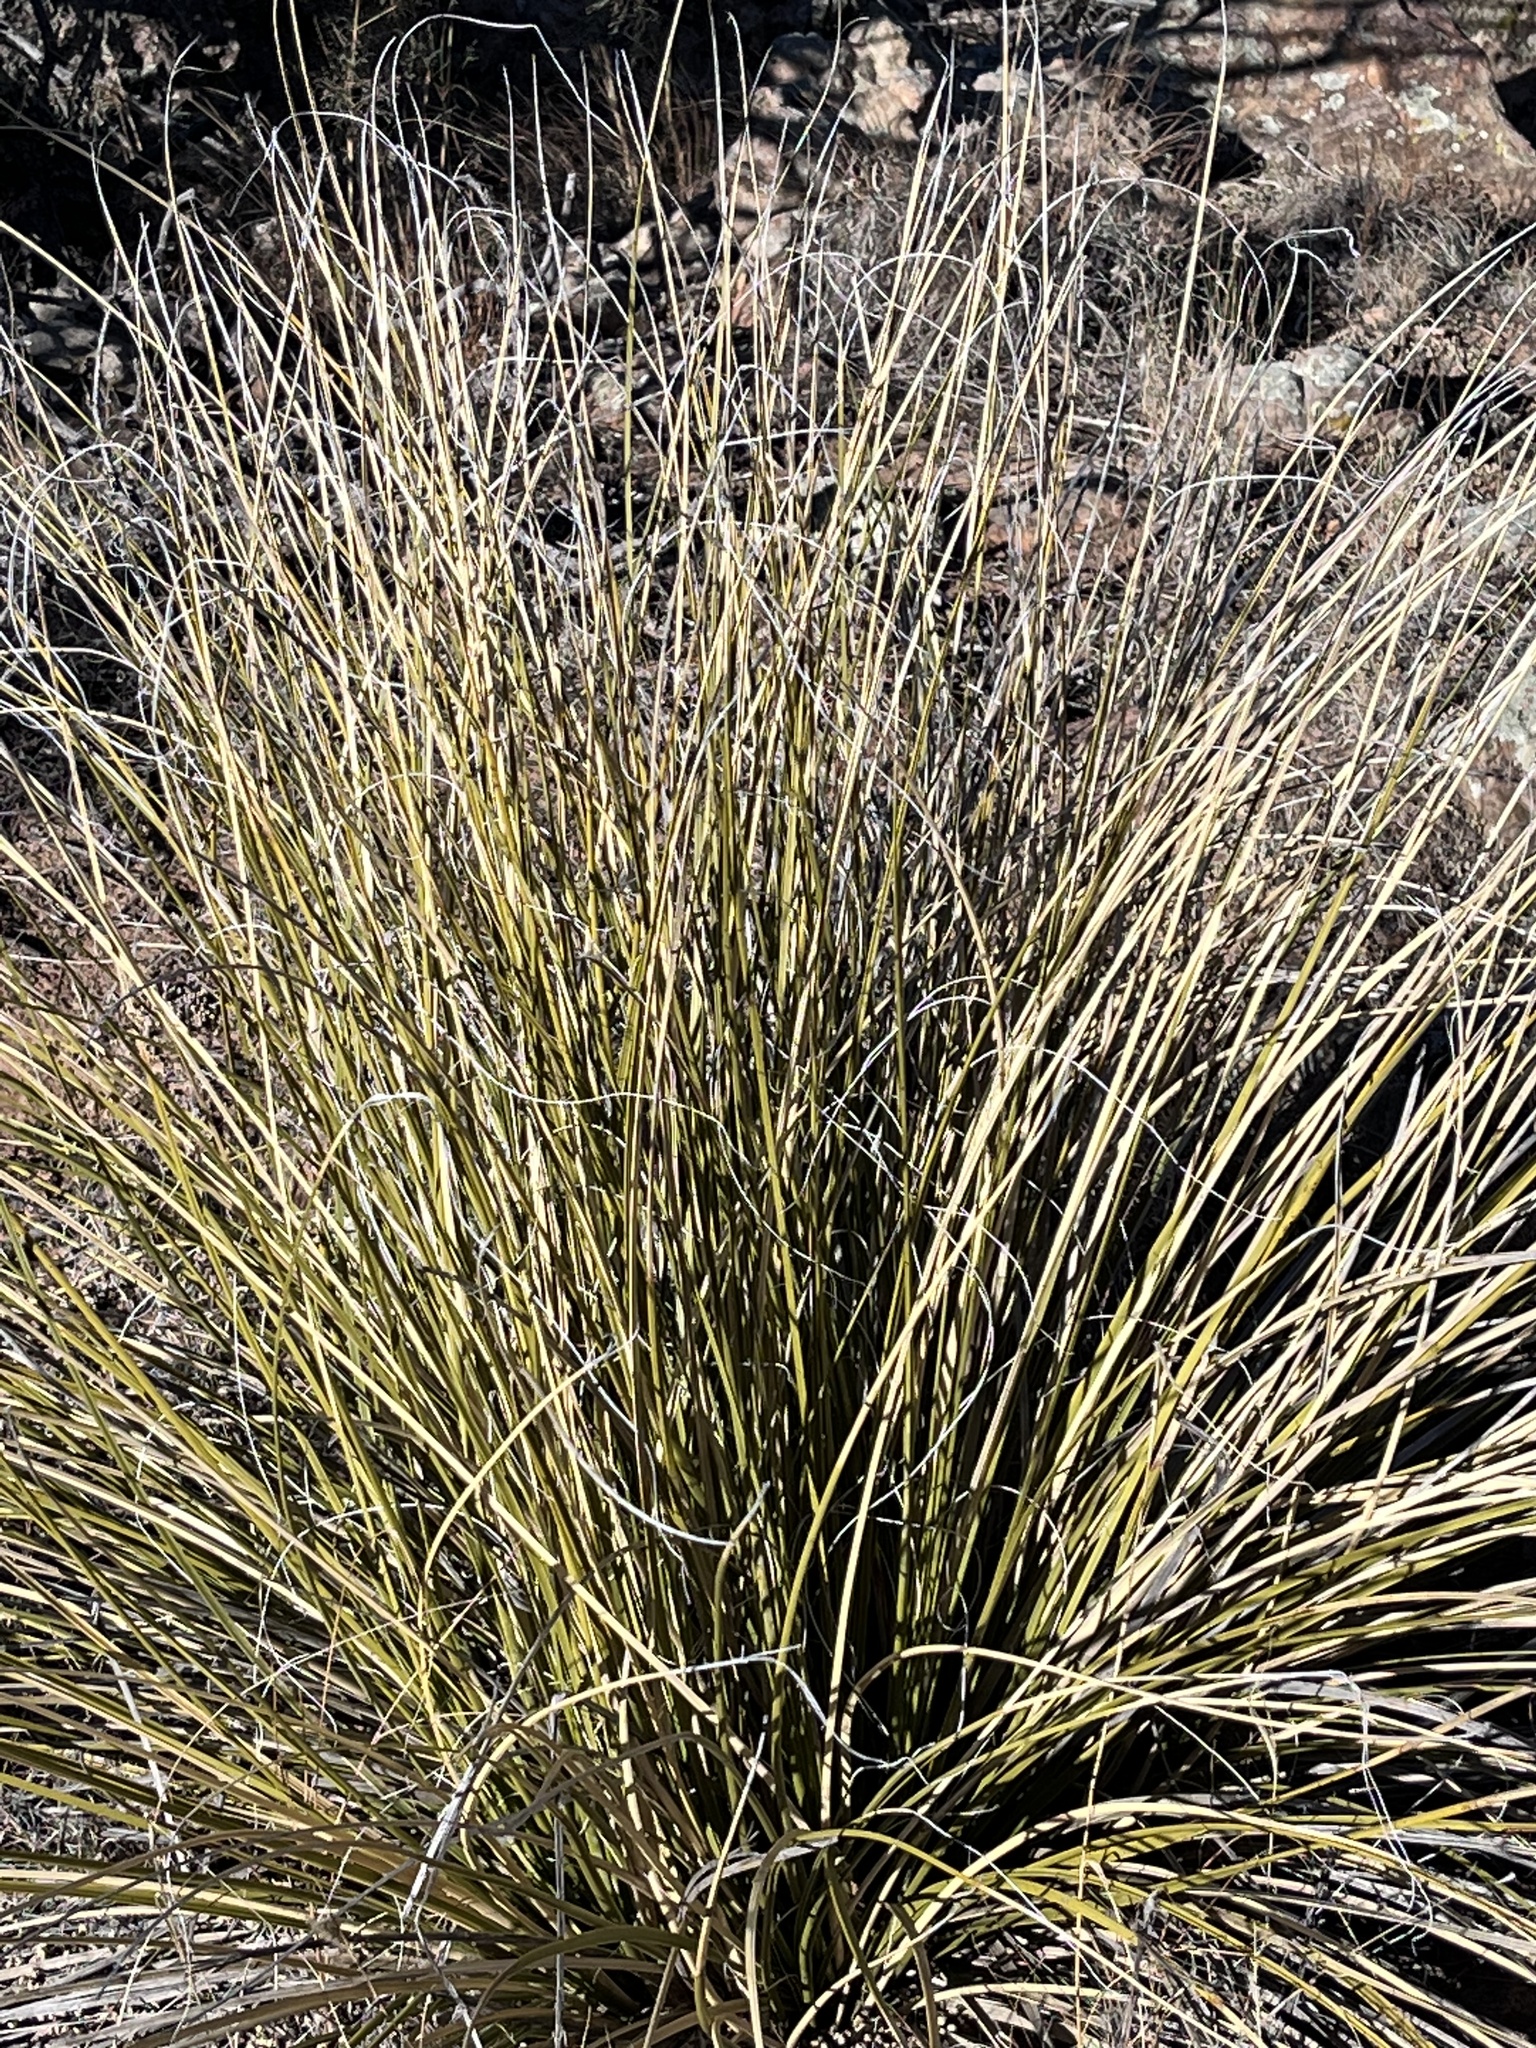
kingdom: Plantae
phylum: Tracheophyta
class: Liliopsida
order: Asparagales
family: Asparagaceae
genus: Nolina
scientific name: Nolina greenei
